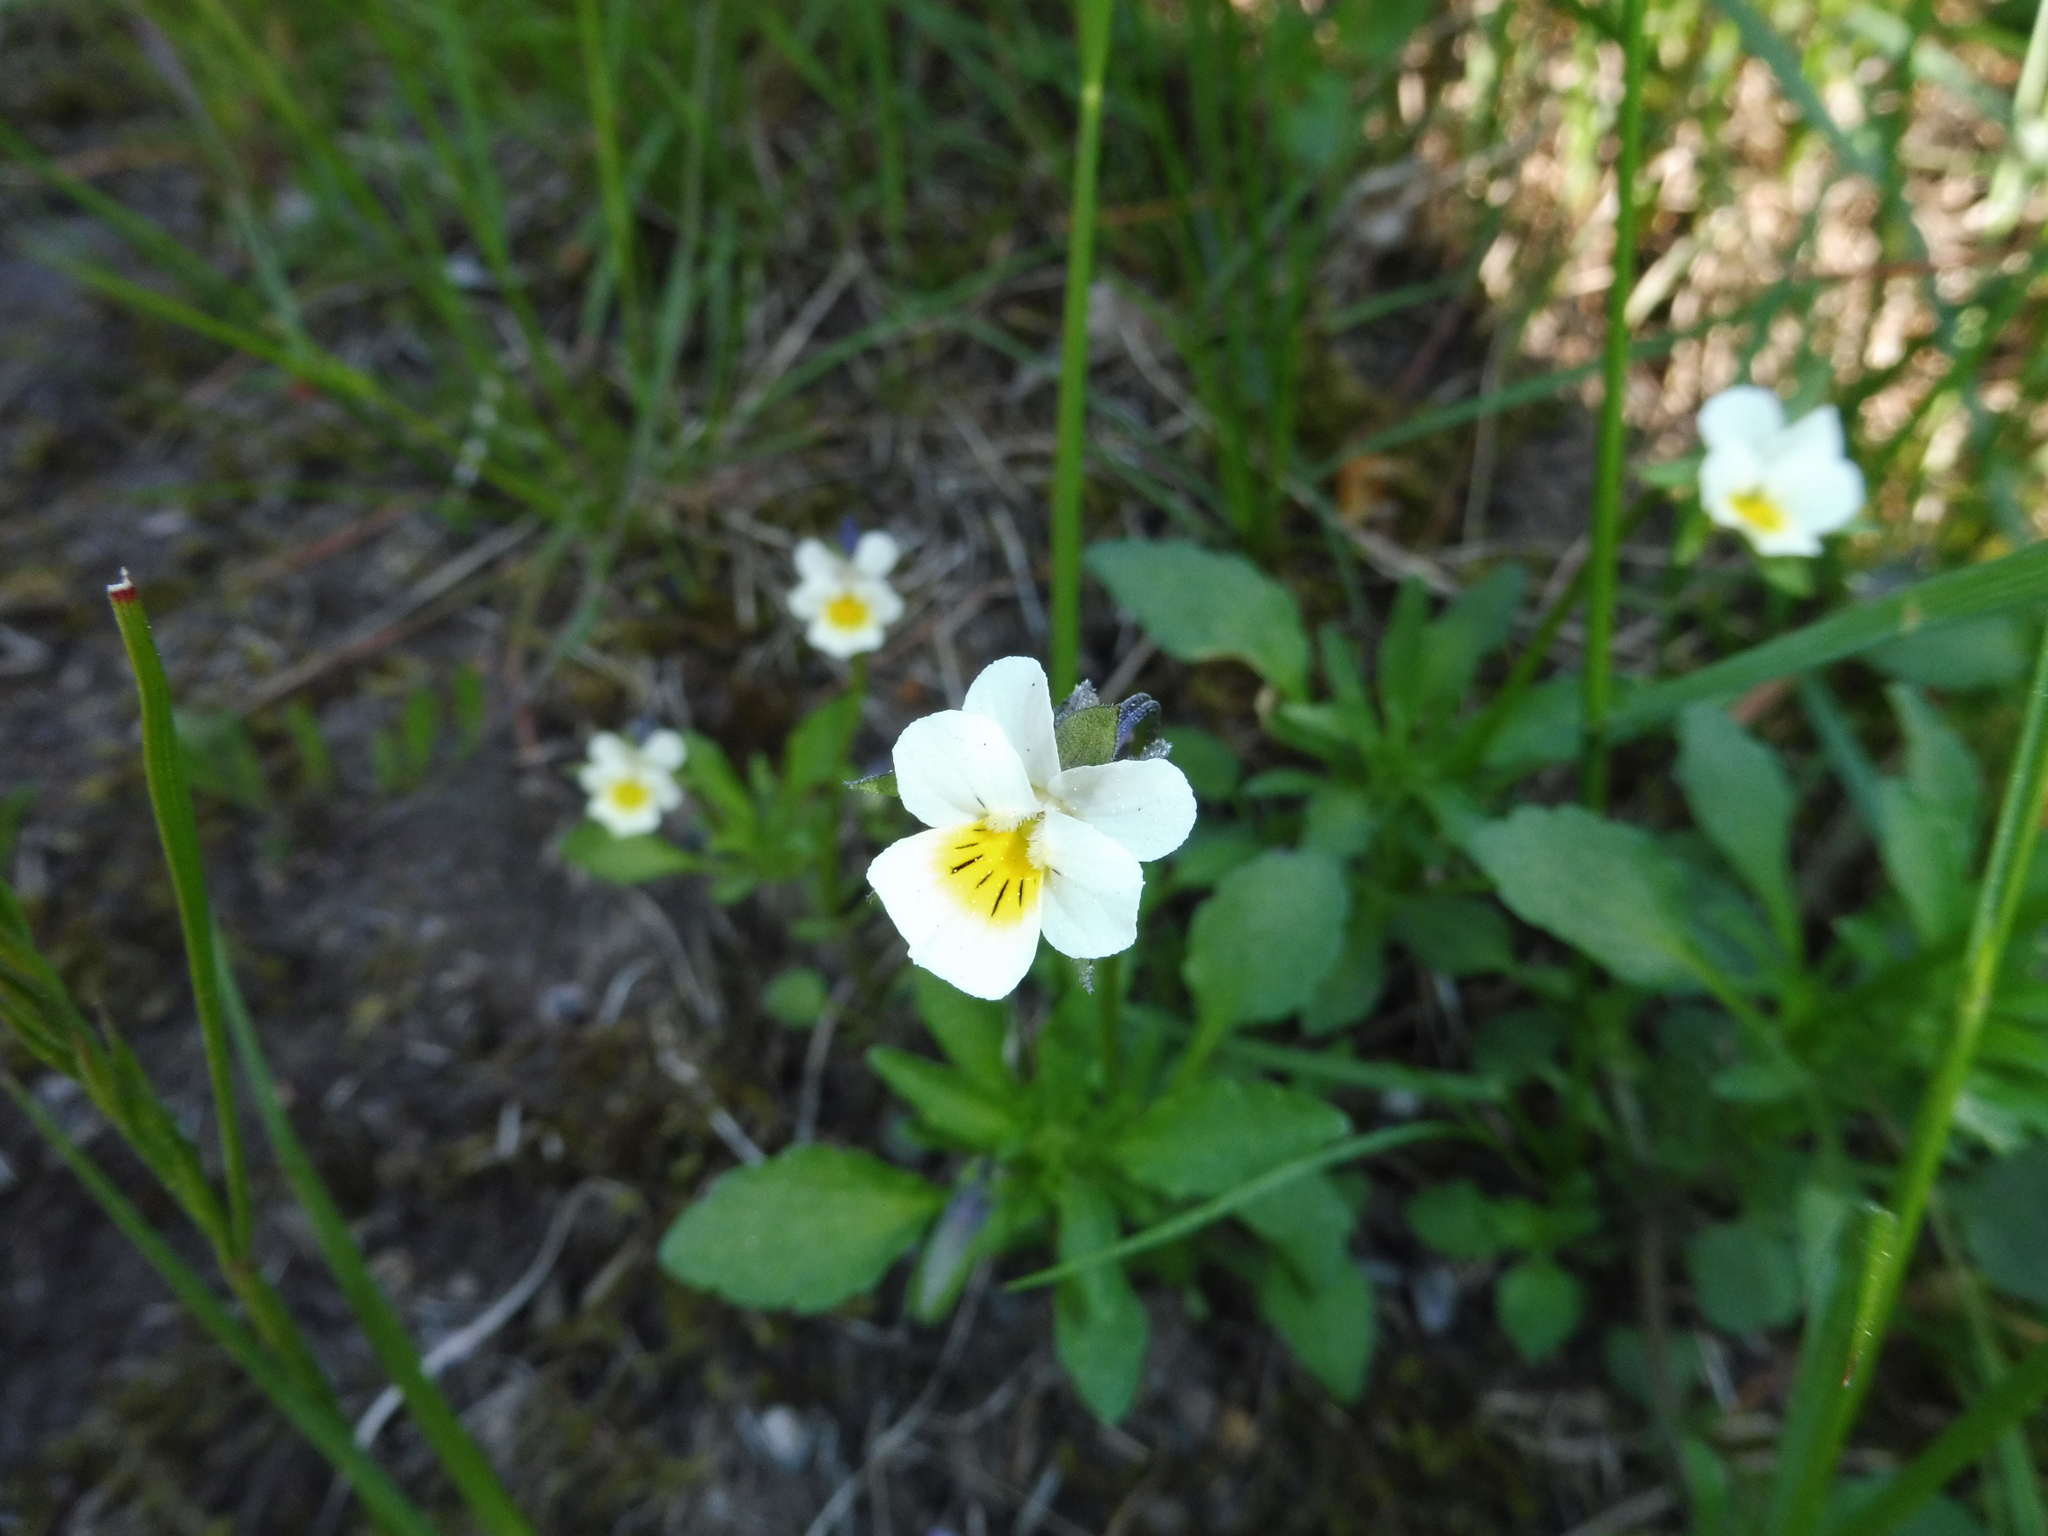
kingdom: Plantae
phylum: Tracheophyta
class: Magnoliopsida
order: Malpighiales
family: Violaceae
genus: Viola
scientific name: Viola arvensis
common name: Field pansy
